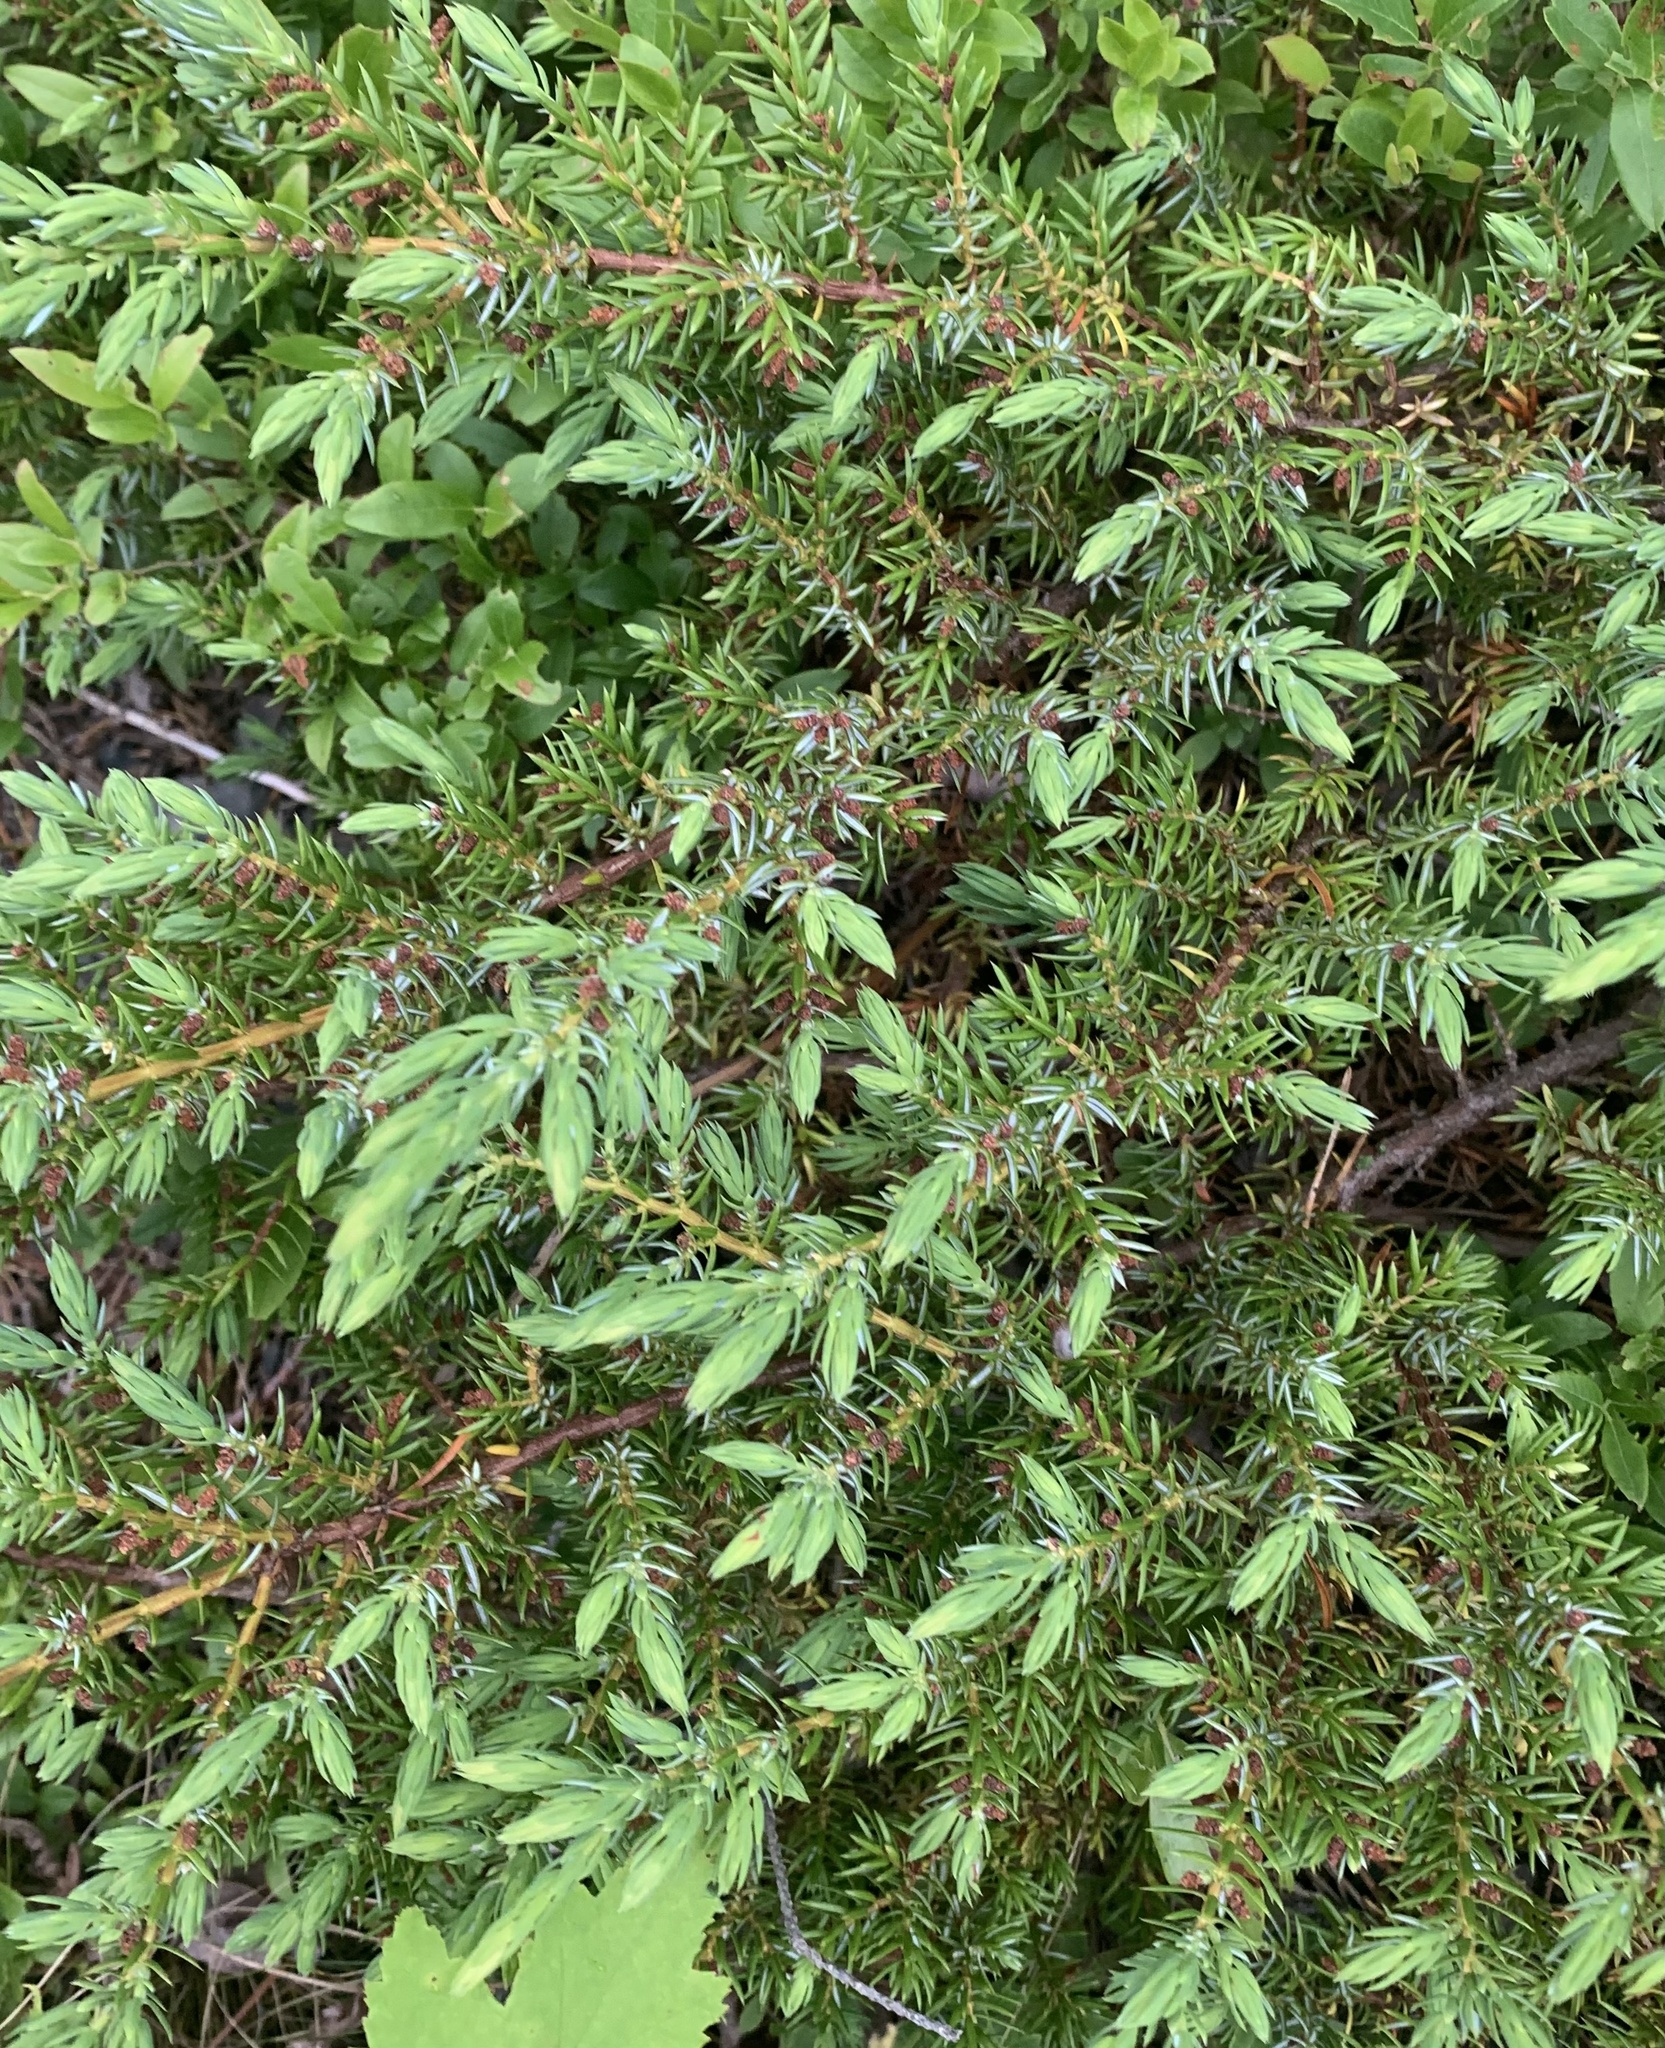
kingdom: Plantae
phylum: Tracheophyta
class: Pinopsida
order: Pinales
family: Cupressaceae
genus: Juniperus
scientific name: Juniperus communis
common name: Common juniper
